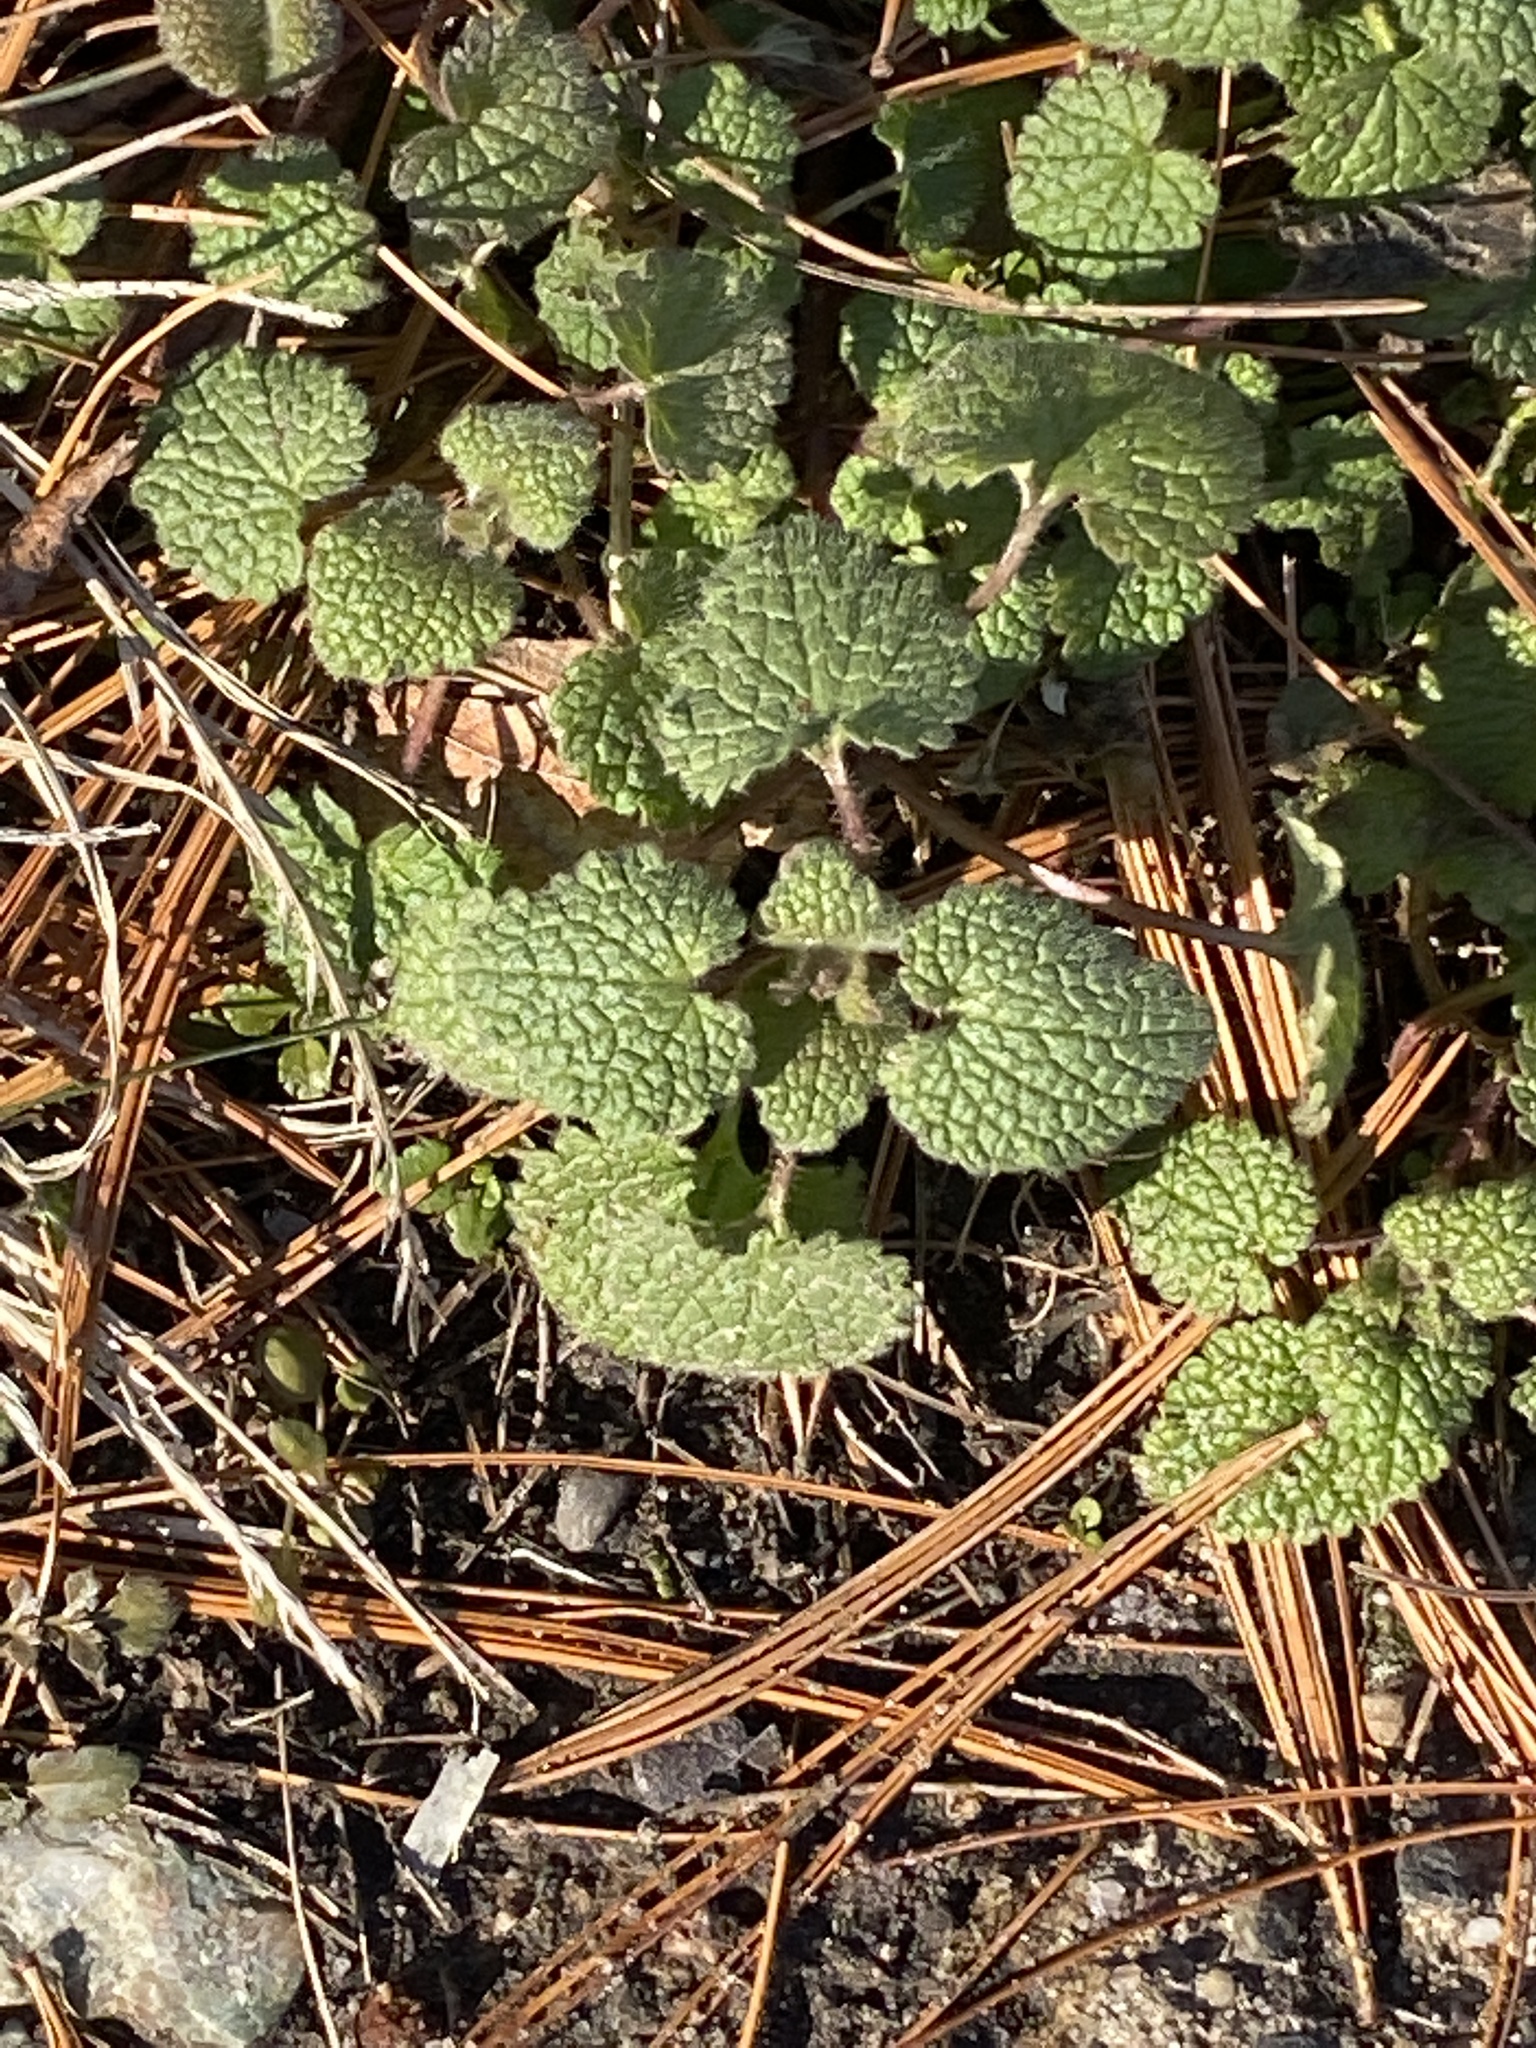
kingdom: Plantae
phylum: Tracheophyta
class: Magnoliopsida
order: Lamiales
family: Lamiaceae
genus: Lamium
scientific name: Lamium purpureum
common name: Red dead-nettle
